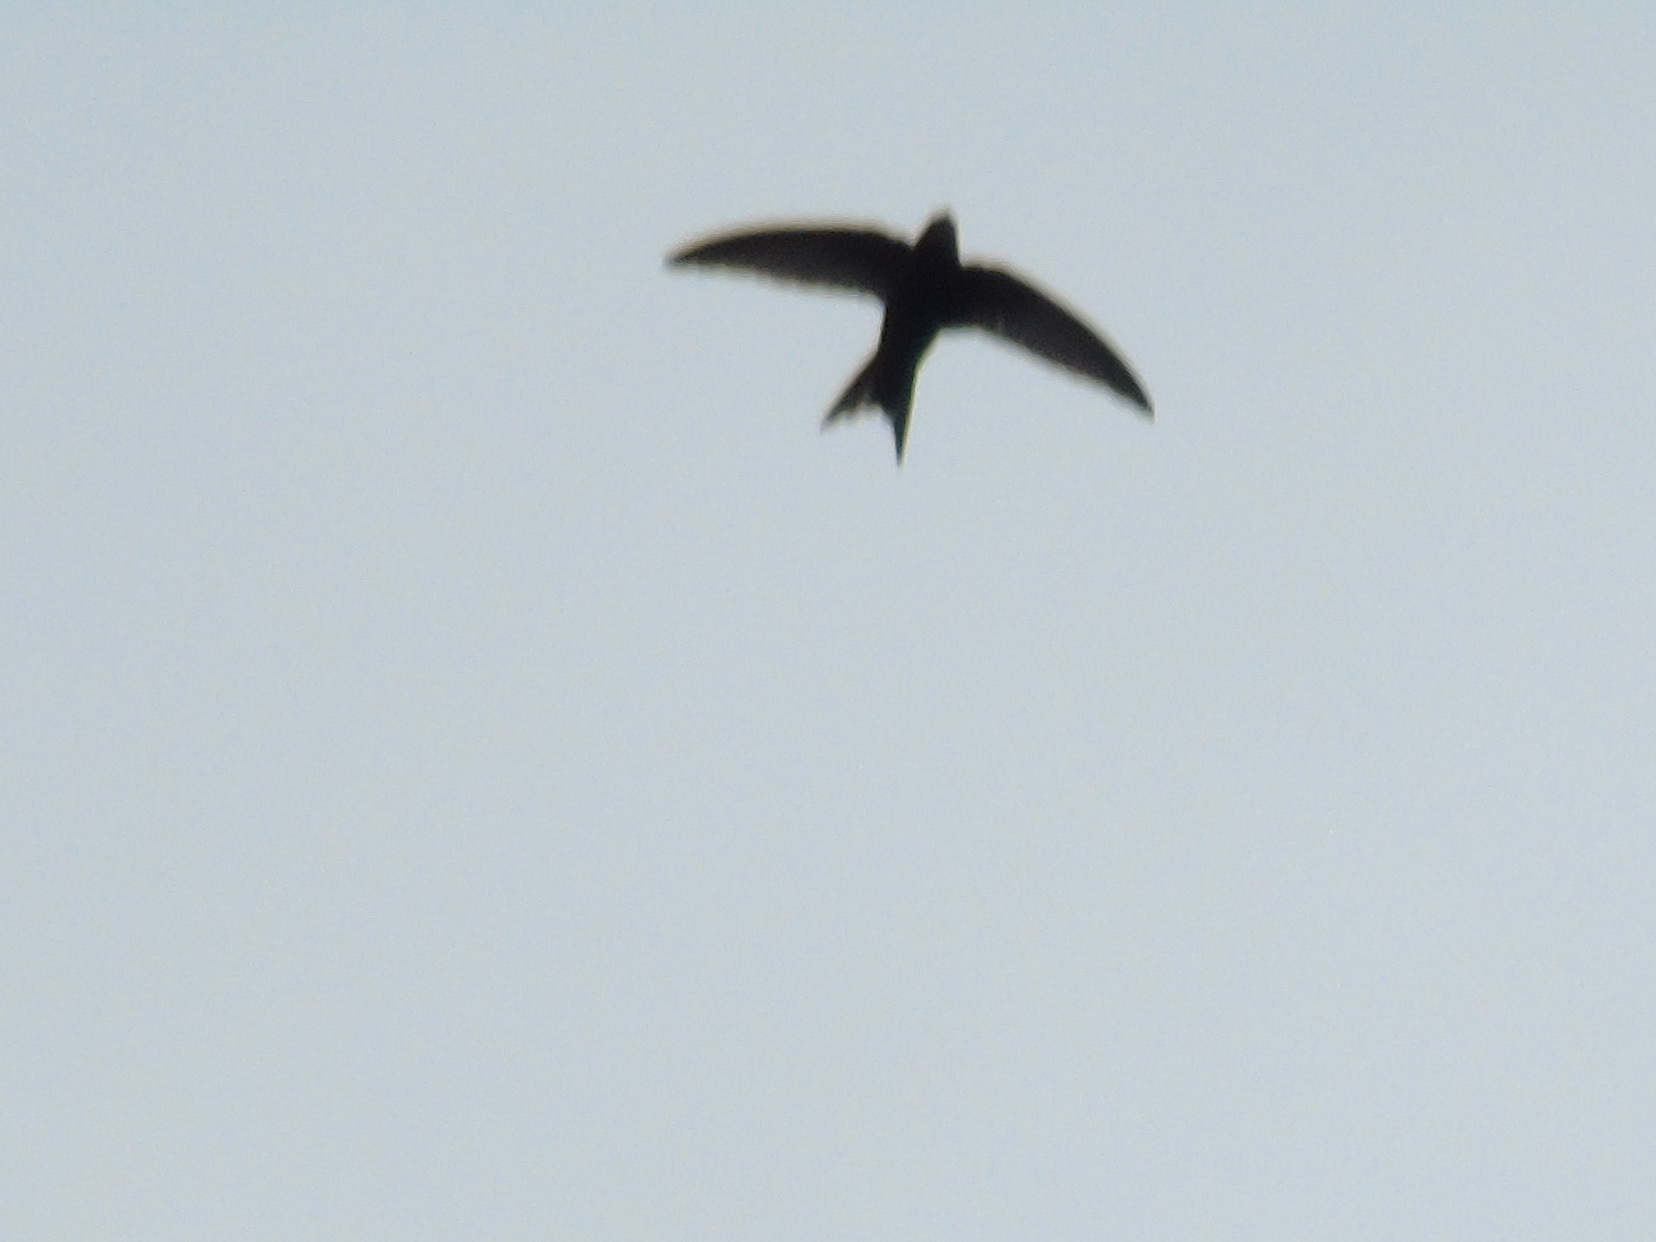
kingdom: Animalia
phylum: Chordata
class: Aves
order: Apodiformes
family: Apodidae
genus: Apus
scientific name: Apus apus
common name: Common swift
